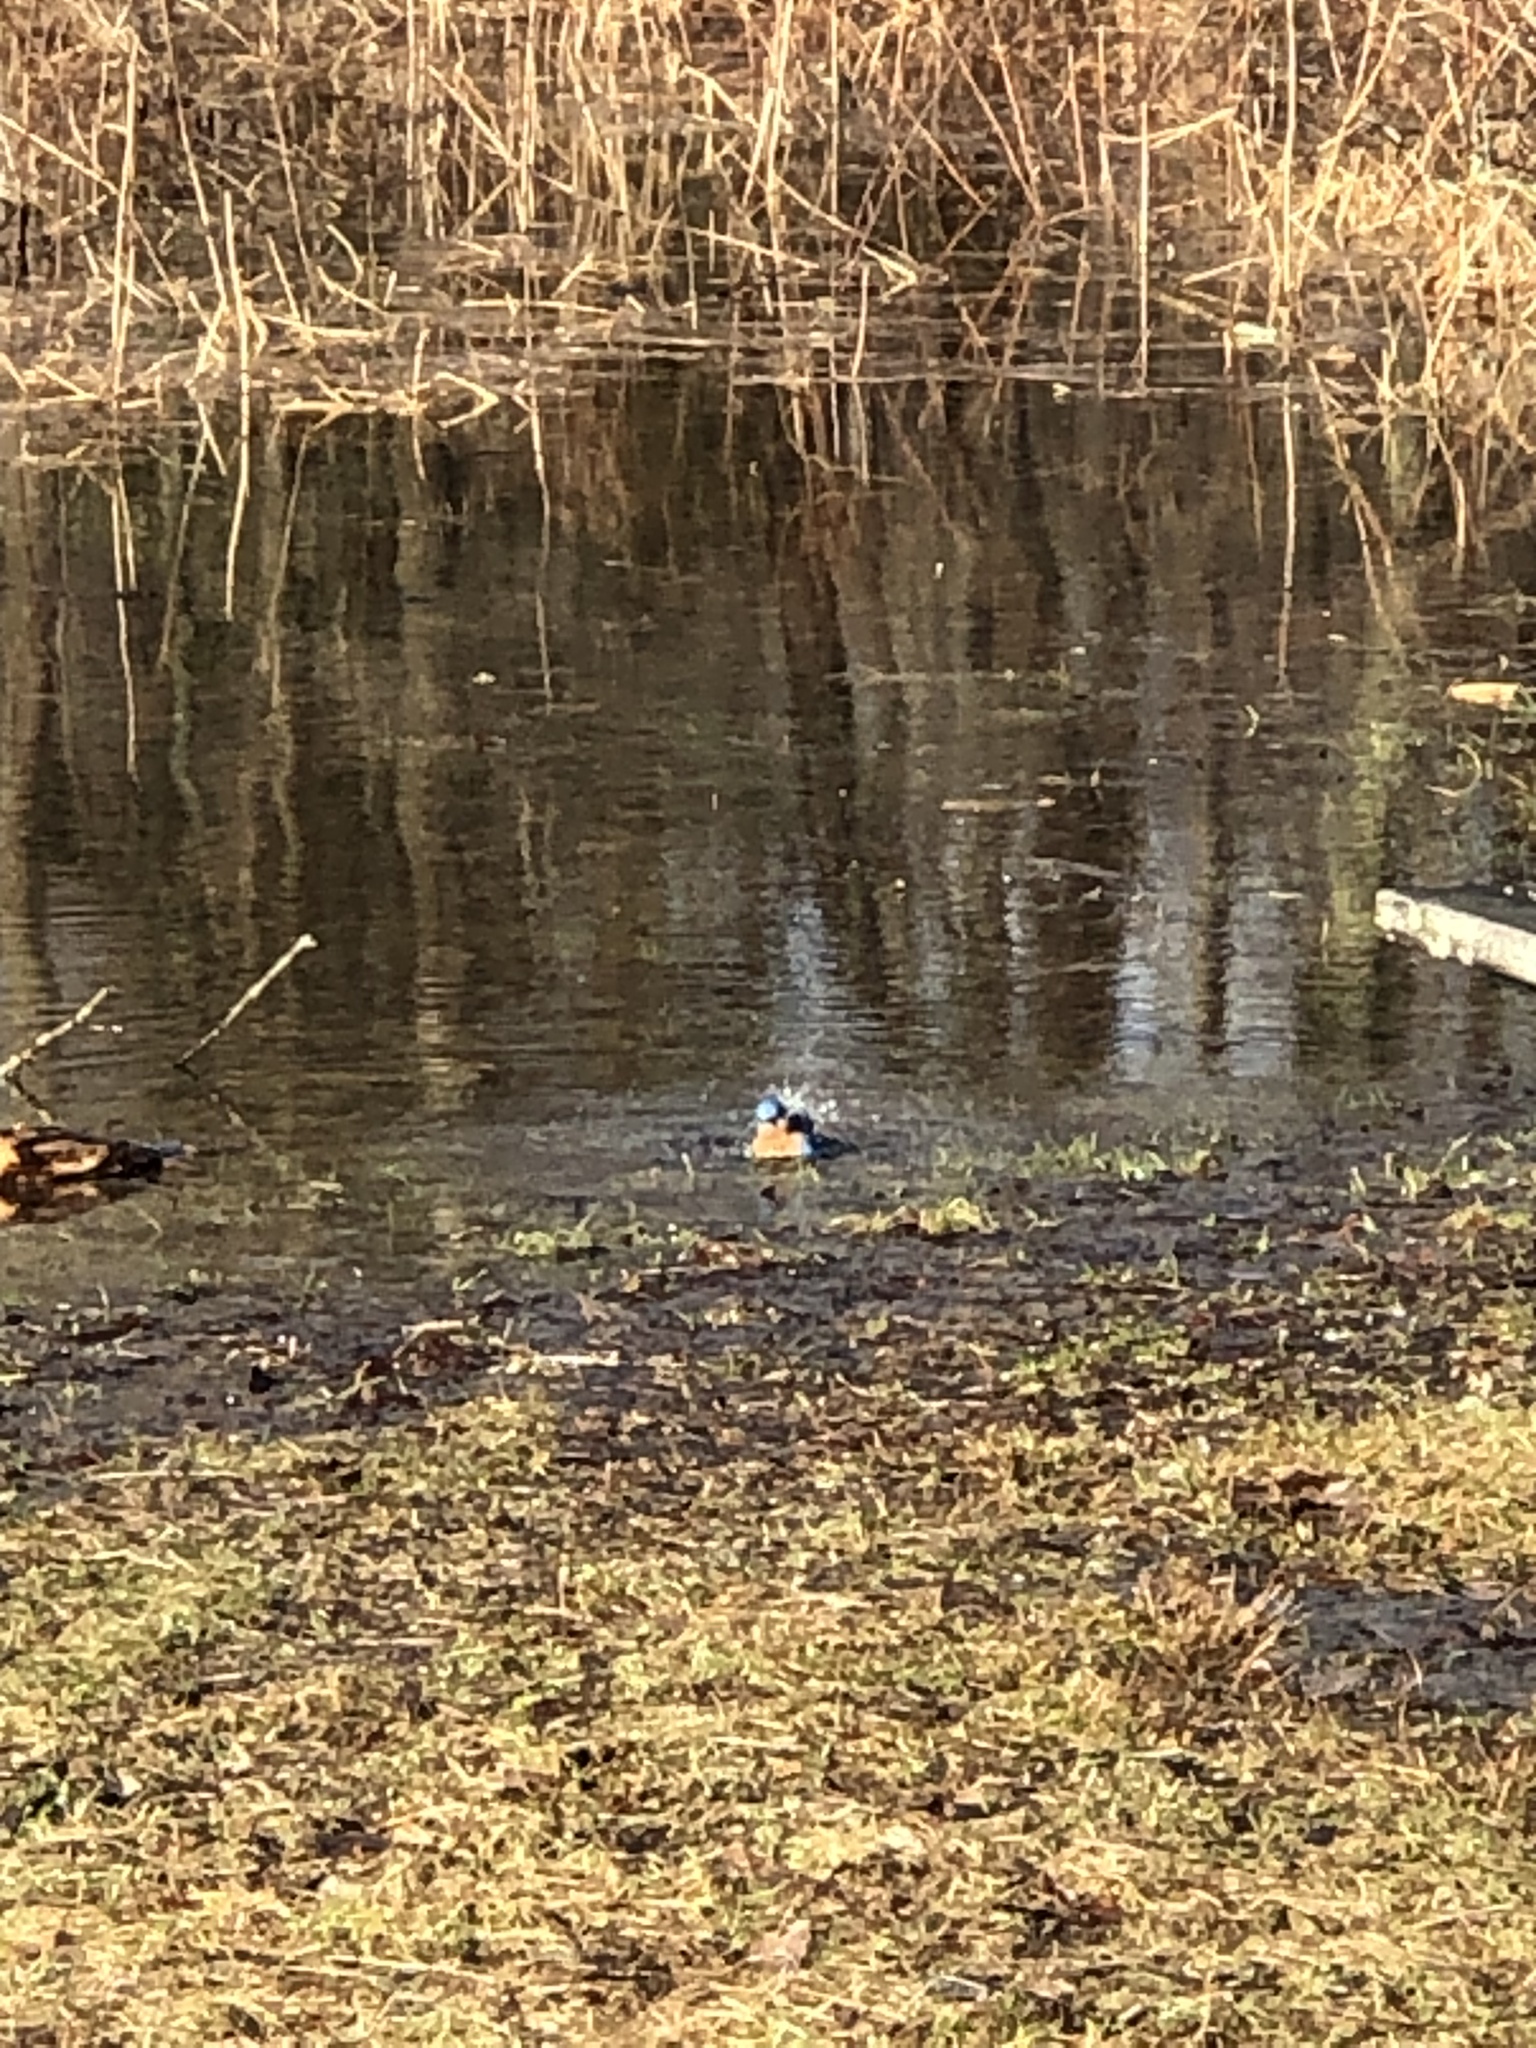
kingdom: Animalia
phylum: Chordata
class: Aves
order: Passeriformes
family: Turdidae
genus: Sialia
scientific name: Sialia sialis
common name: Eastern bluebird
